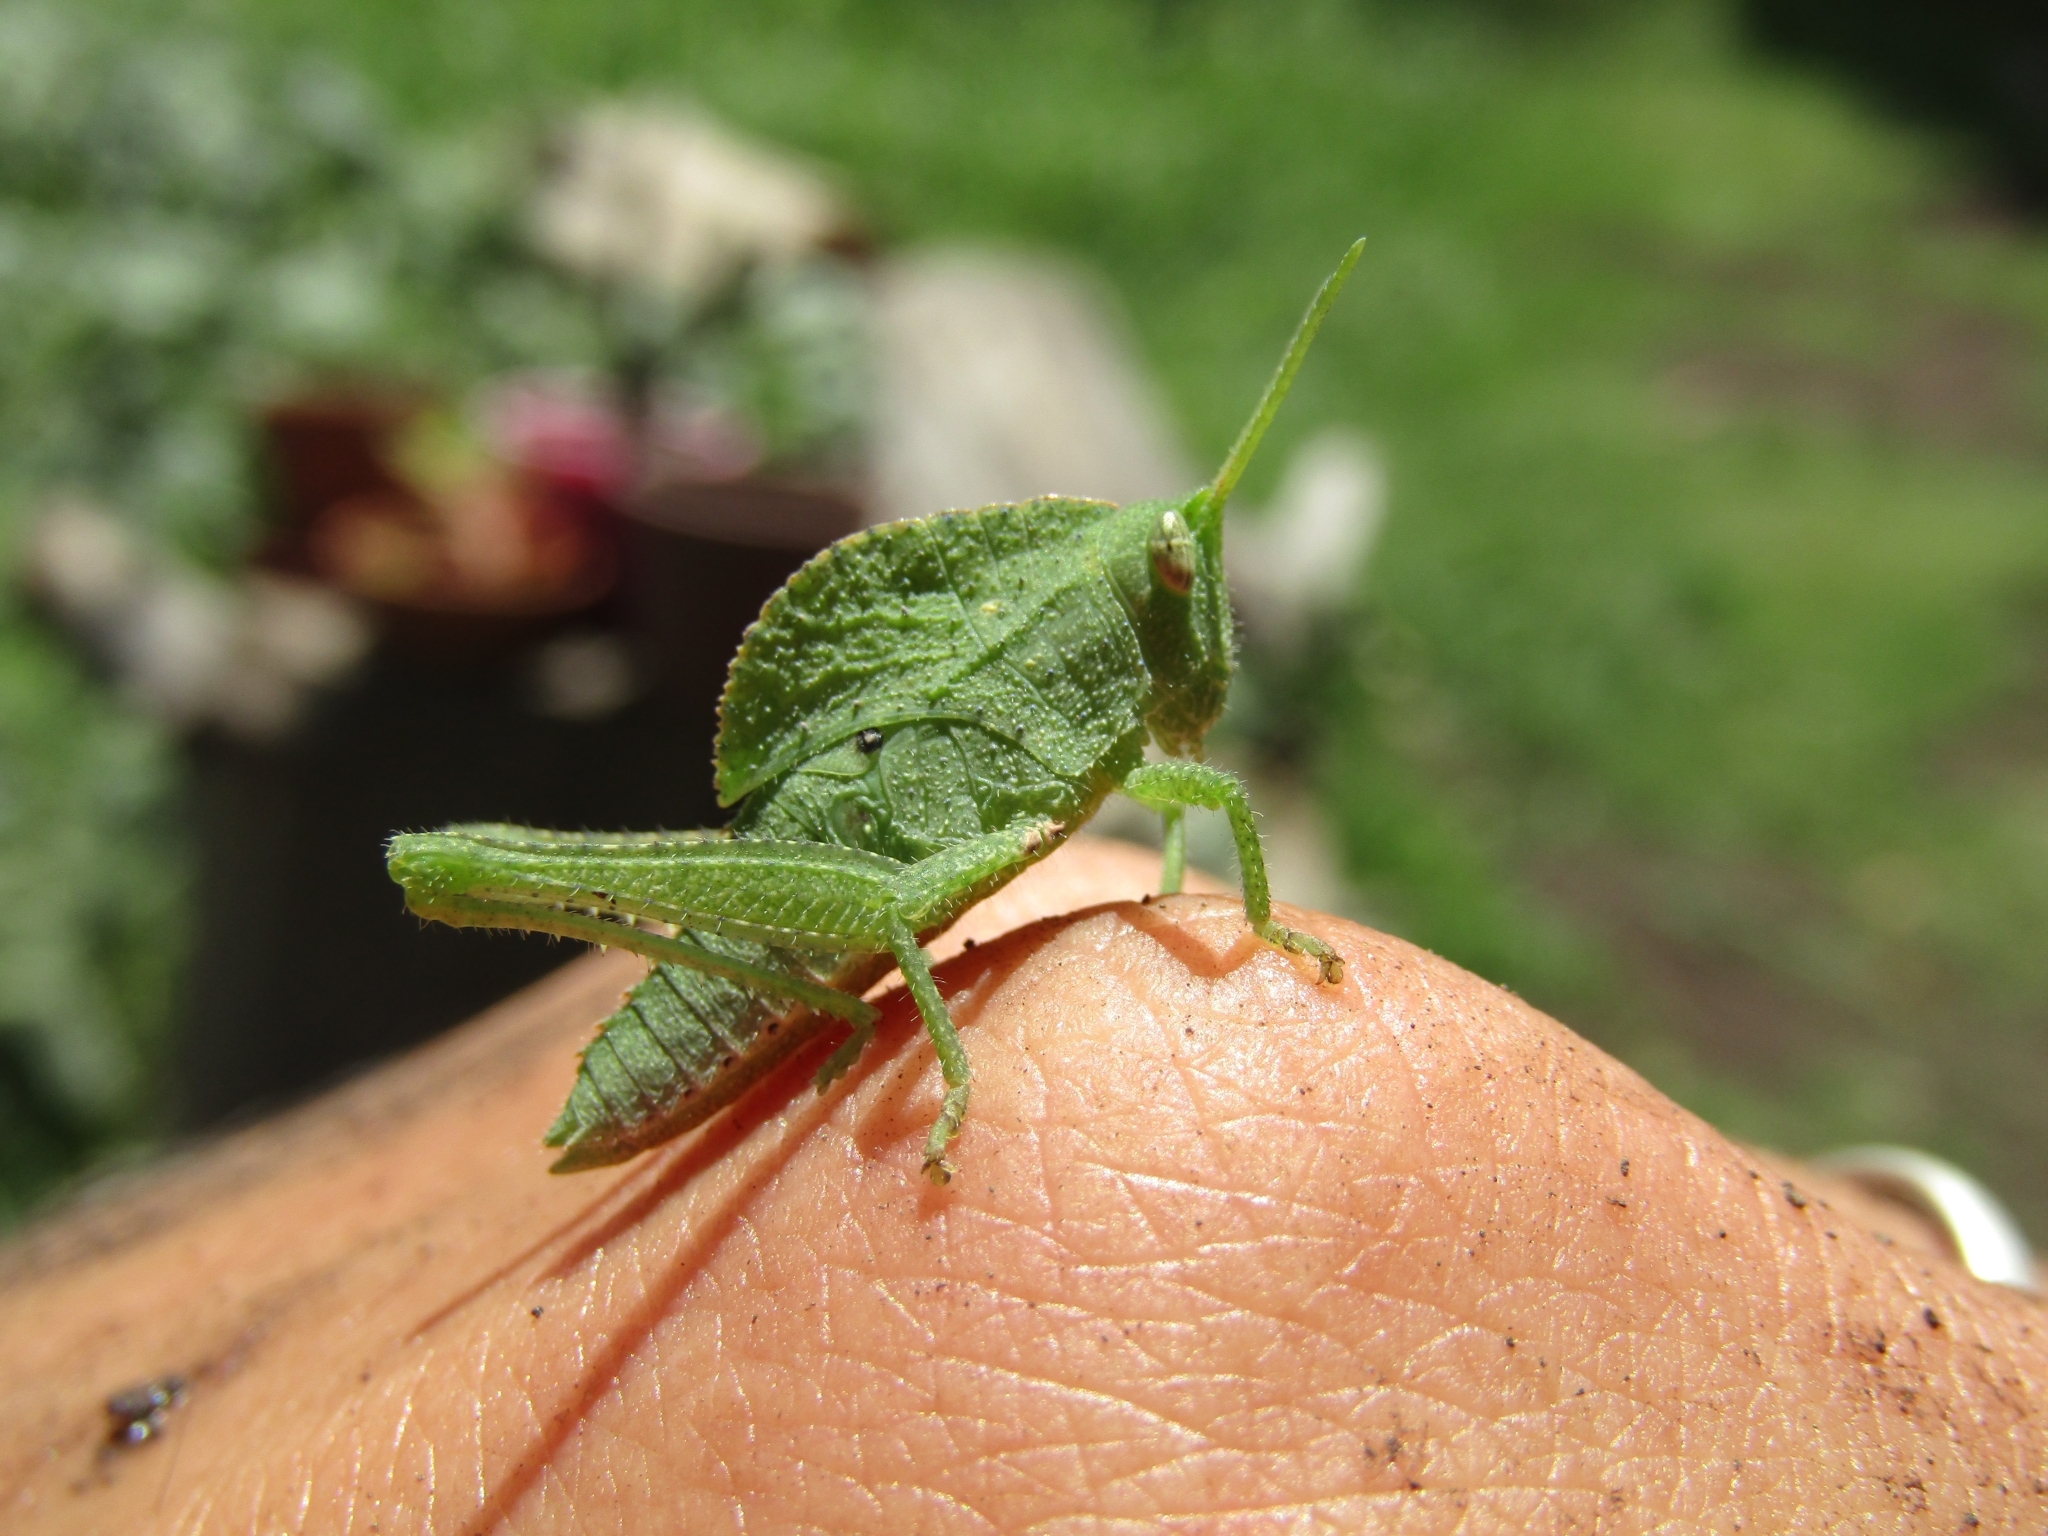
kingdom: Animalia
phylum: Arthropoda
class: Insecta
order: Orthoptera
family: Romaleidae
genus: Xyleus
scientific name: Xyleus discoideus
